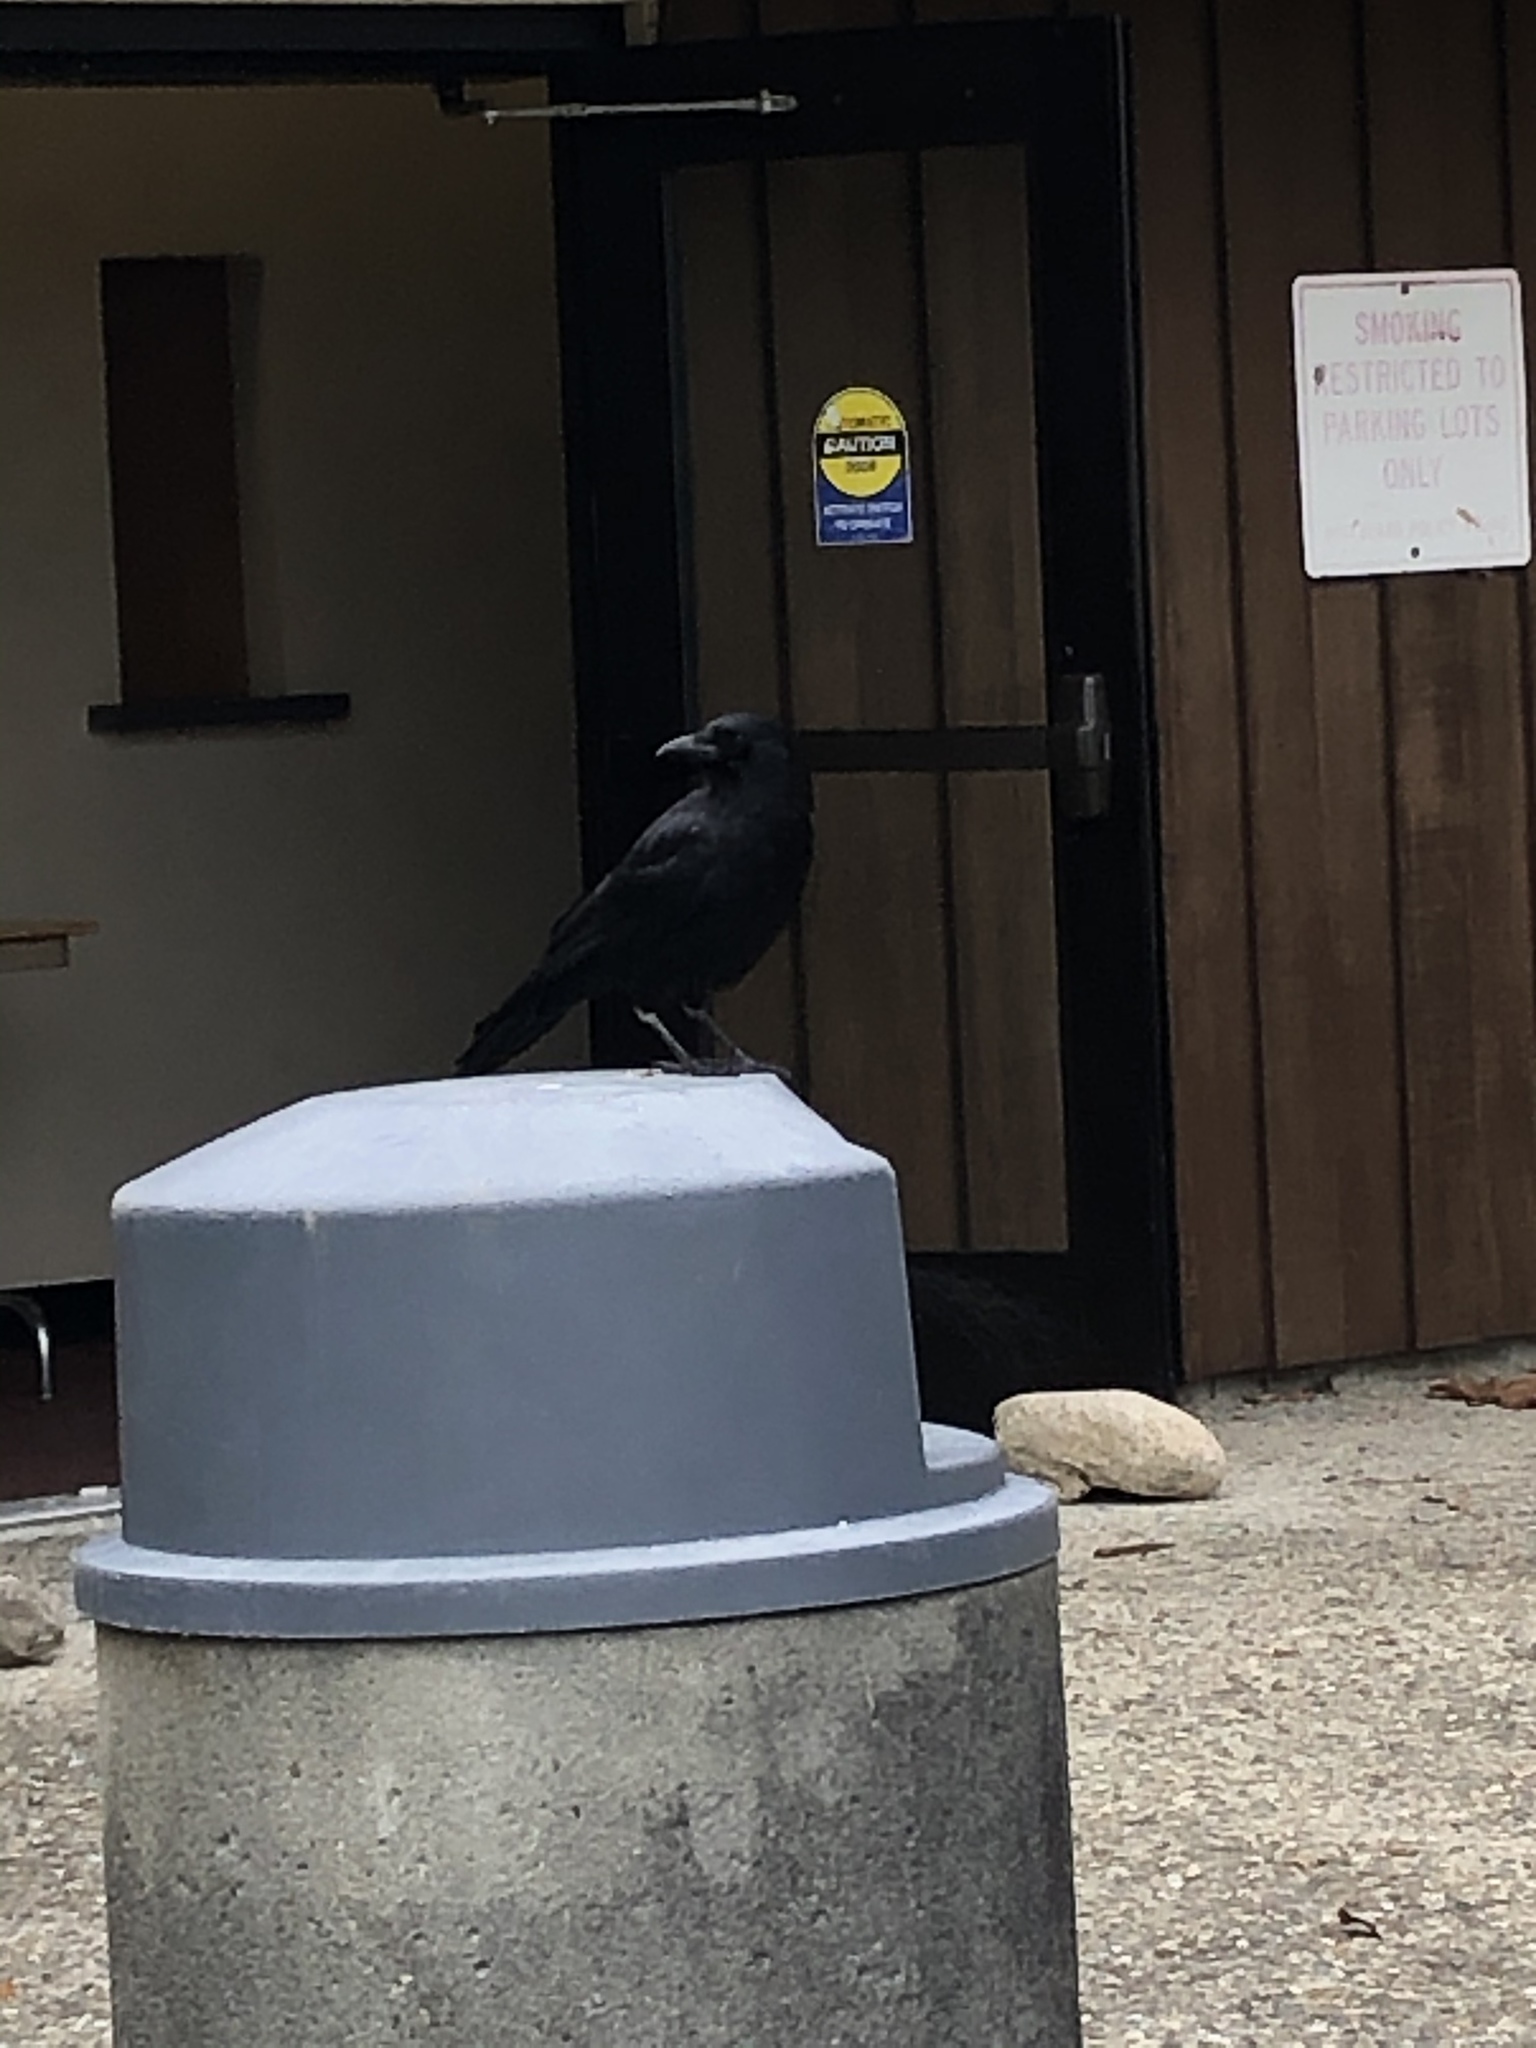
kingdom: Animalia
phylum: Chordata
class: Aves
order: Passeriformes
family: Corvidae
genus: Corvus
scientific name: Corvus brachyrhynchos
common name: American crow
